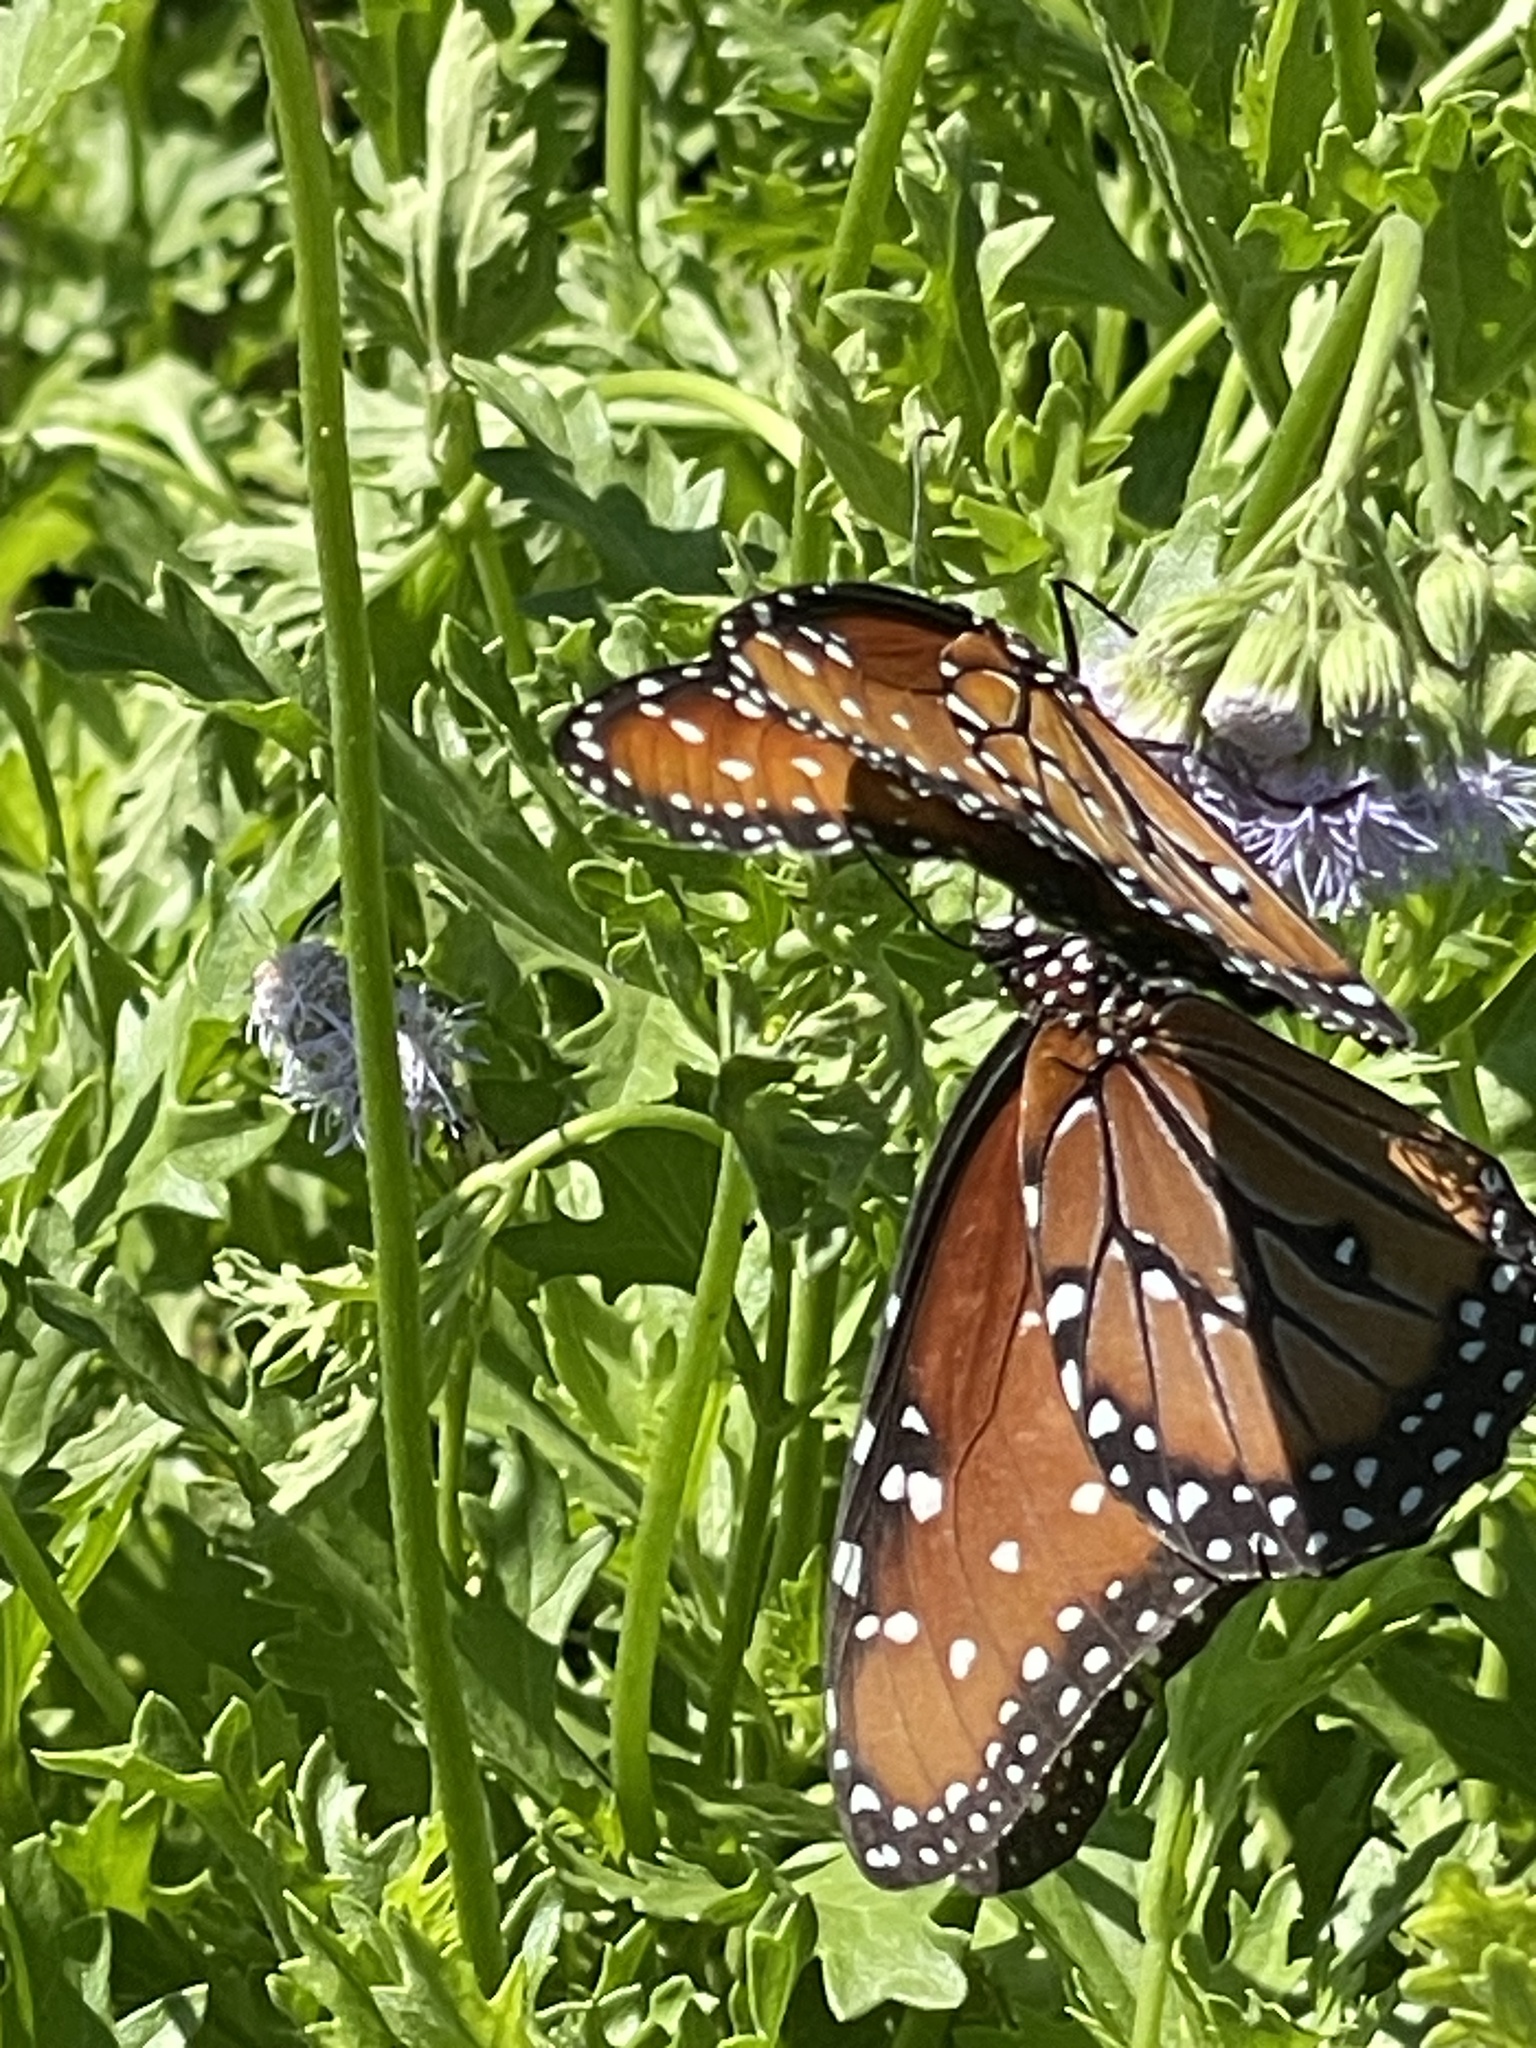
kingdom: Animalia
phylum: Arthropoda
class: Insecta
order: Lepidoptera
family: Nymphalidae
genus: Danaus
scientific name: Danaus gilippus
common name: Queen
